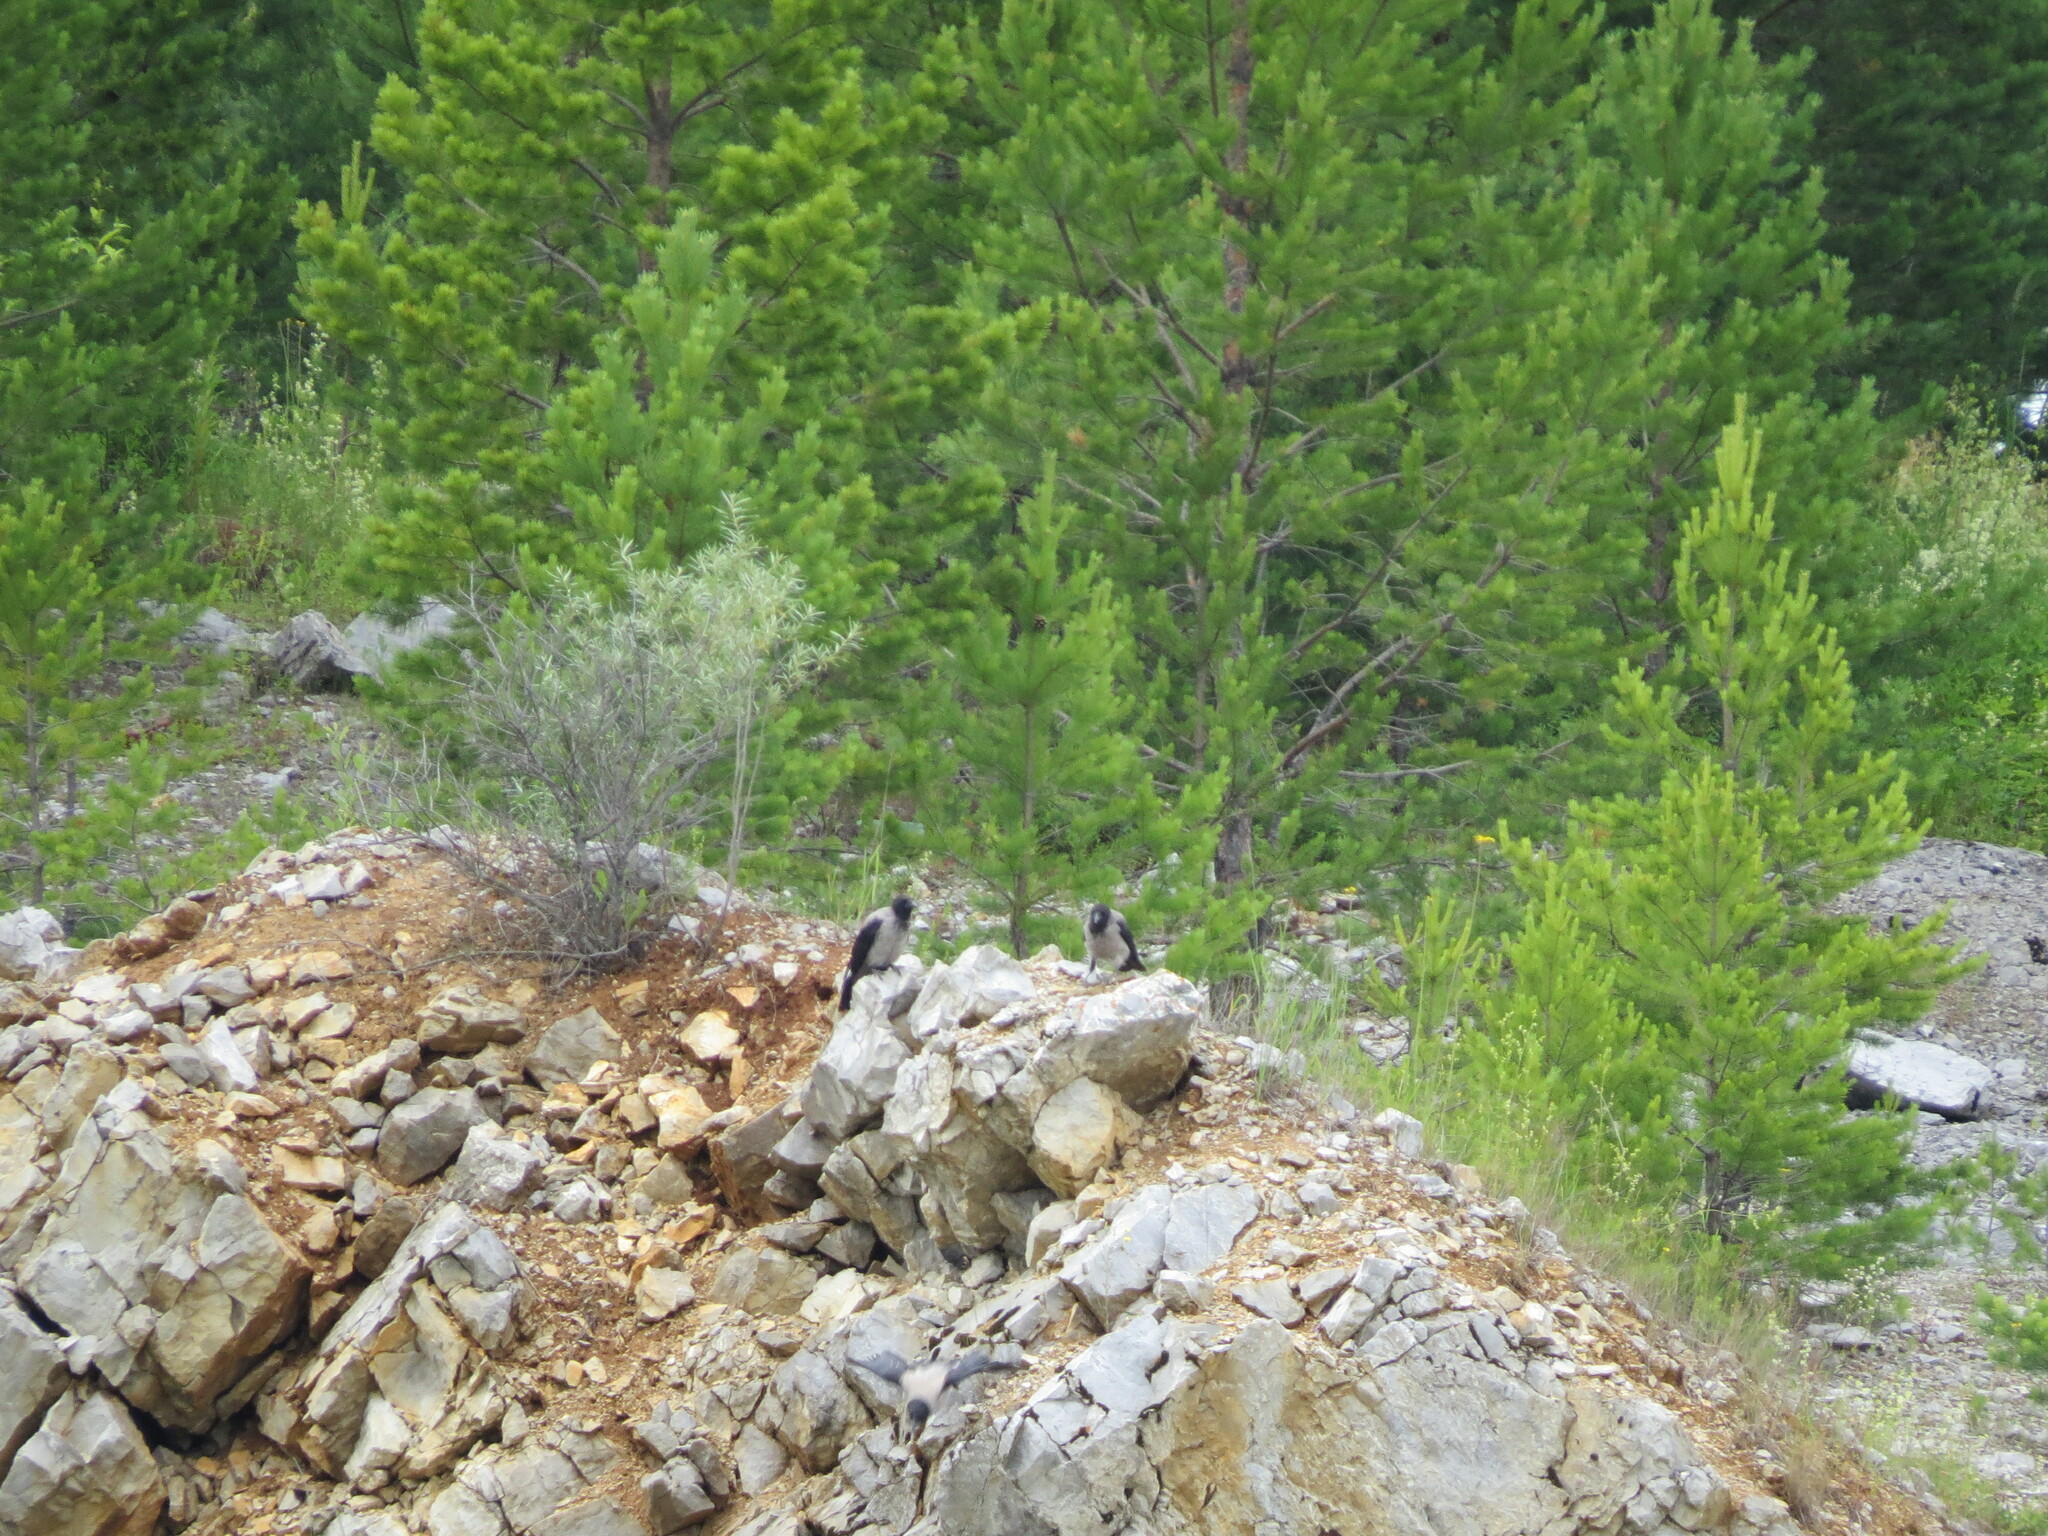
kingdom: Animalia
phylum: Chordata
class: Aves
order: Passeriformes
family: Corvidae
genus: Corvus
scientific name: Corvus cornix
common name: Hooded crow
